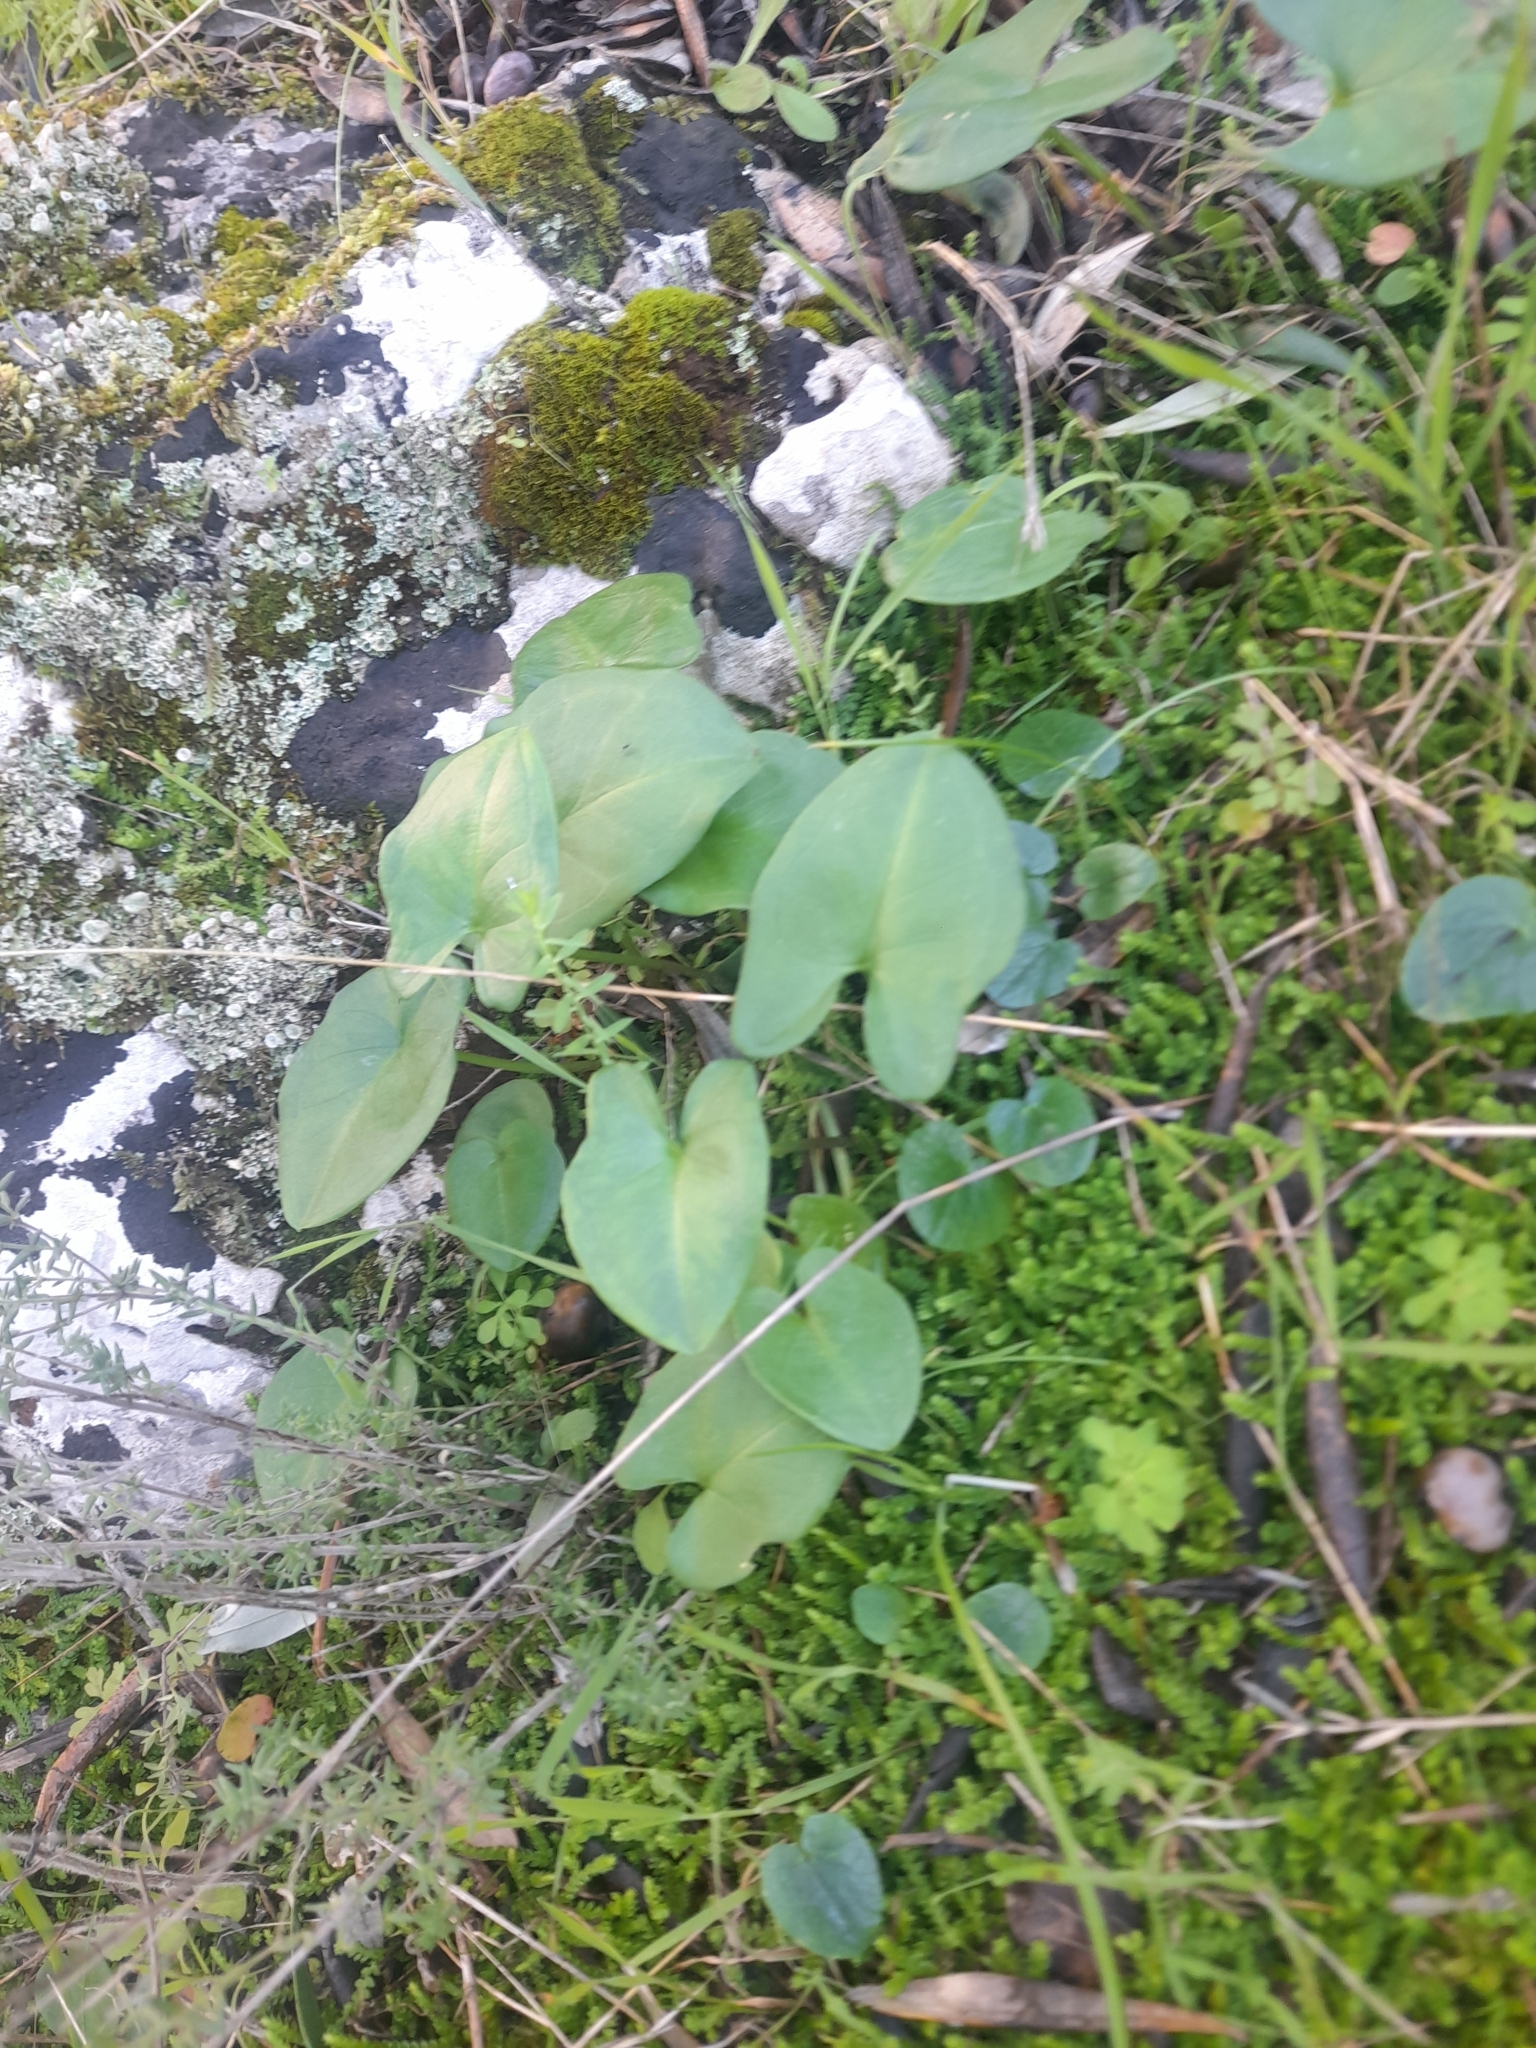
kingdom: Plantae
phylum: Tracheophyta
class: Liliopsida
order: Alismatales
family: Araceae
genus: Arisarum
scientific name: Arisarum vulgare
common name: Common arisarum
